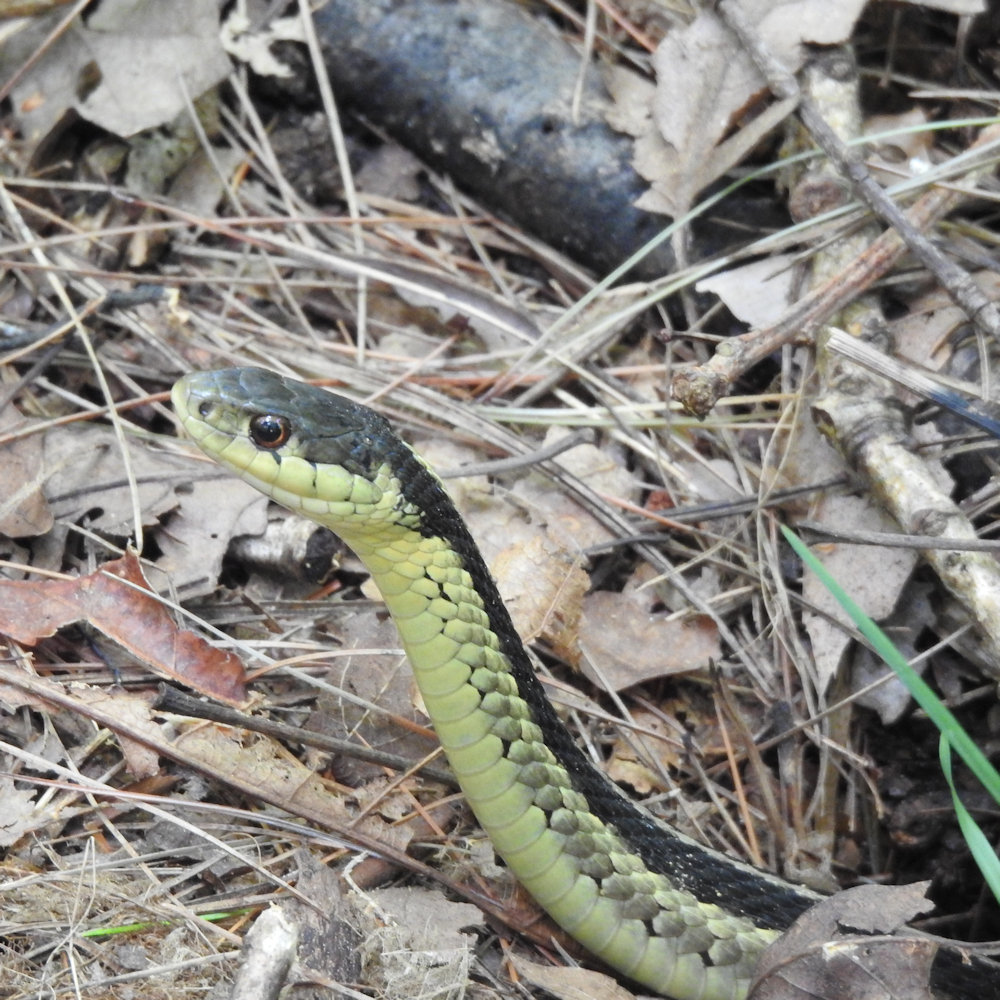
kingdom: Animalia
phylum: Chordata
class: Squamata
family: Colubridae
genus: Thamnophis
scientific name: Thamnophis sirtalis
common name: Common garter snake
